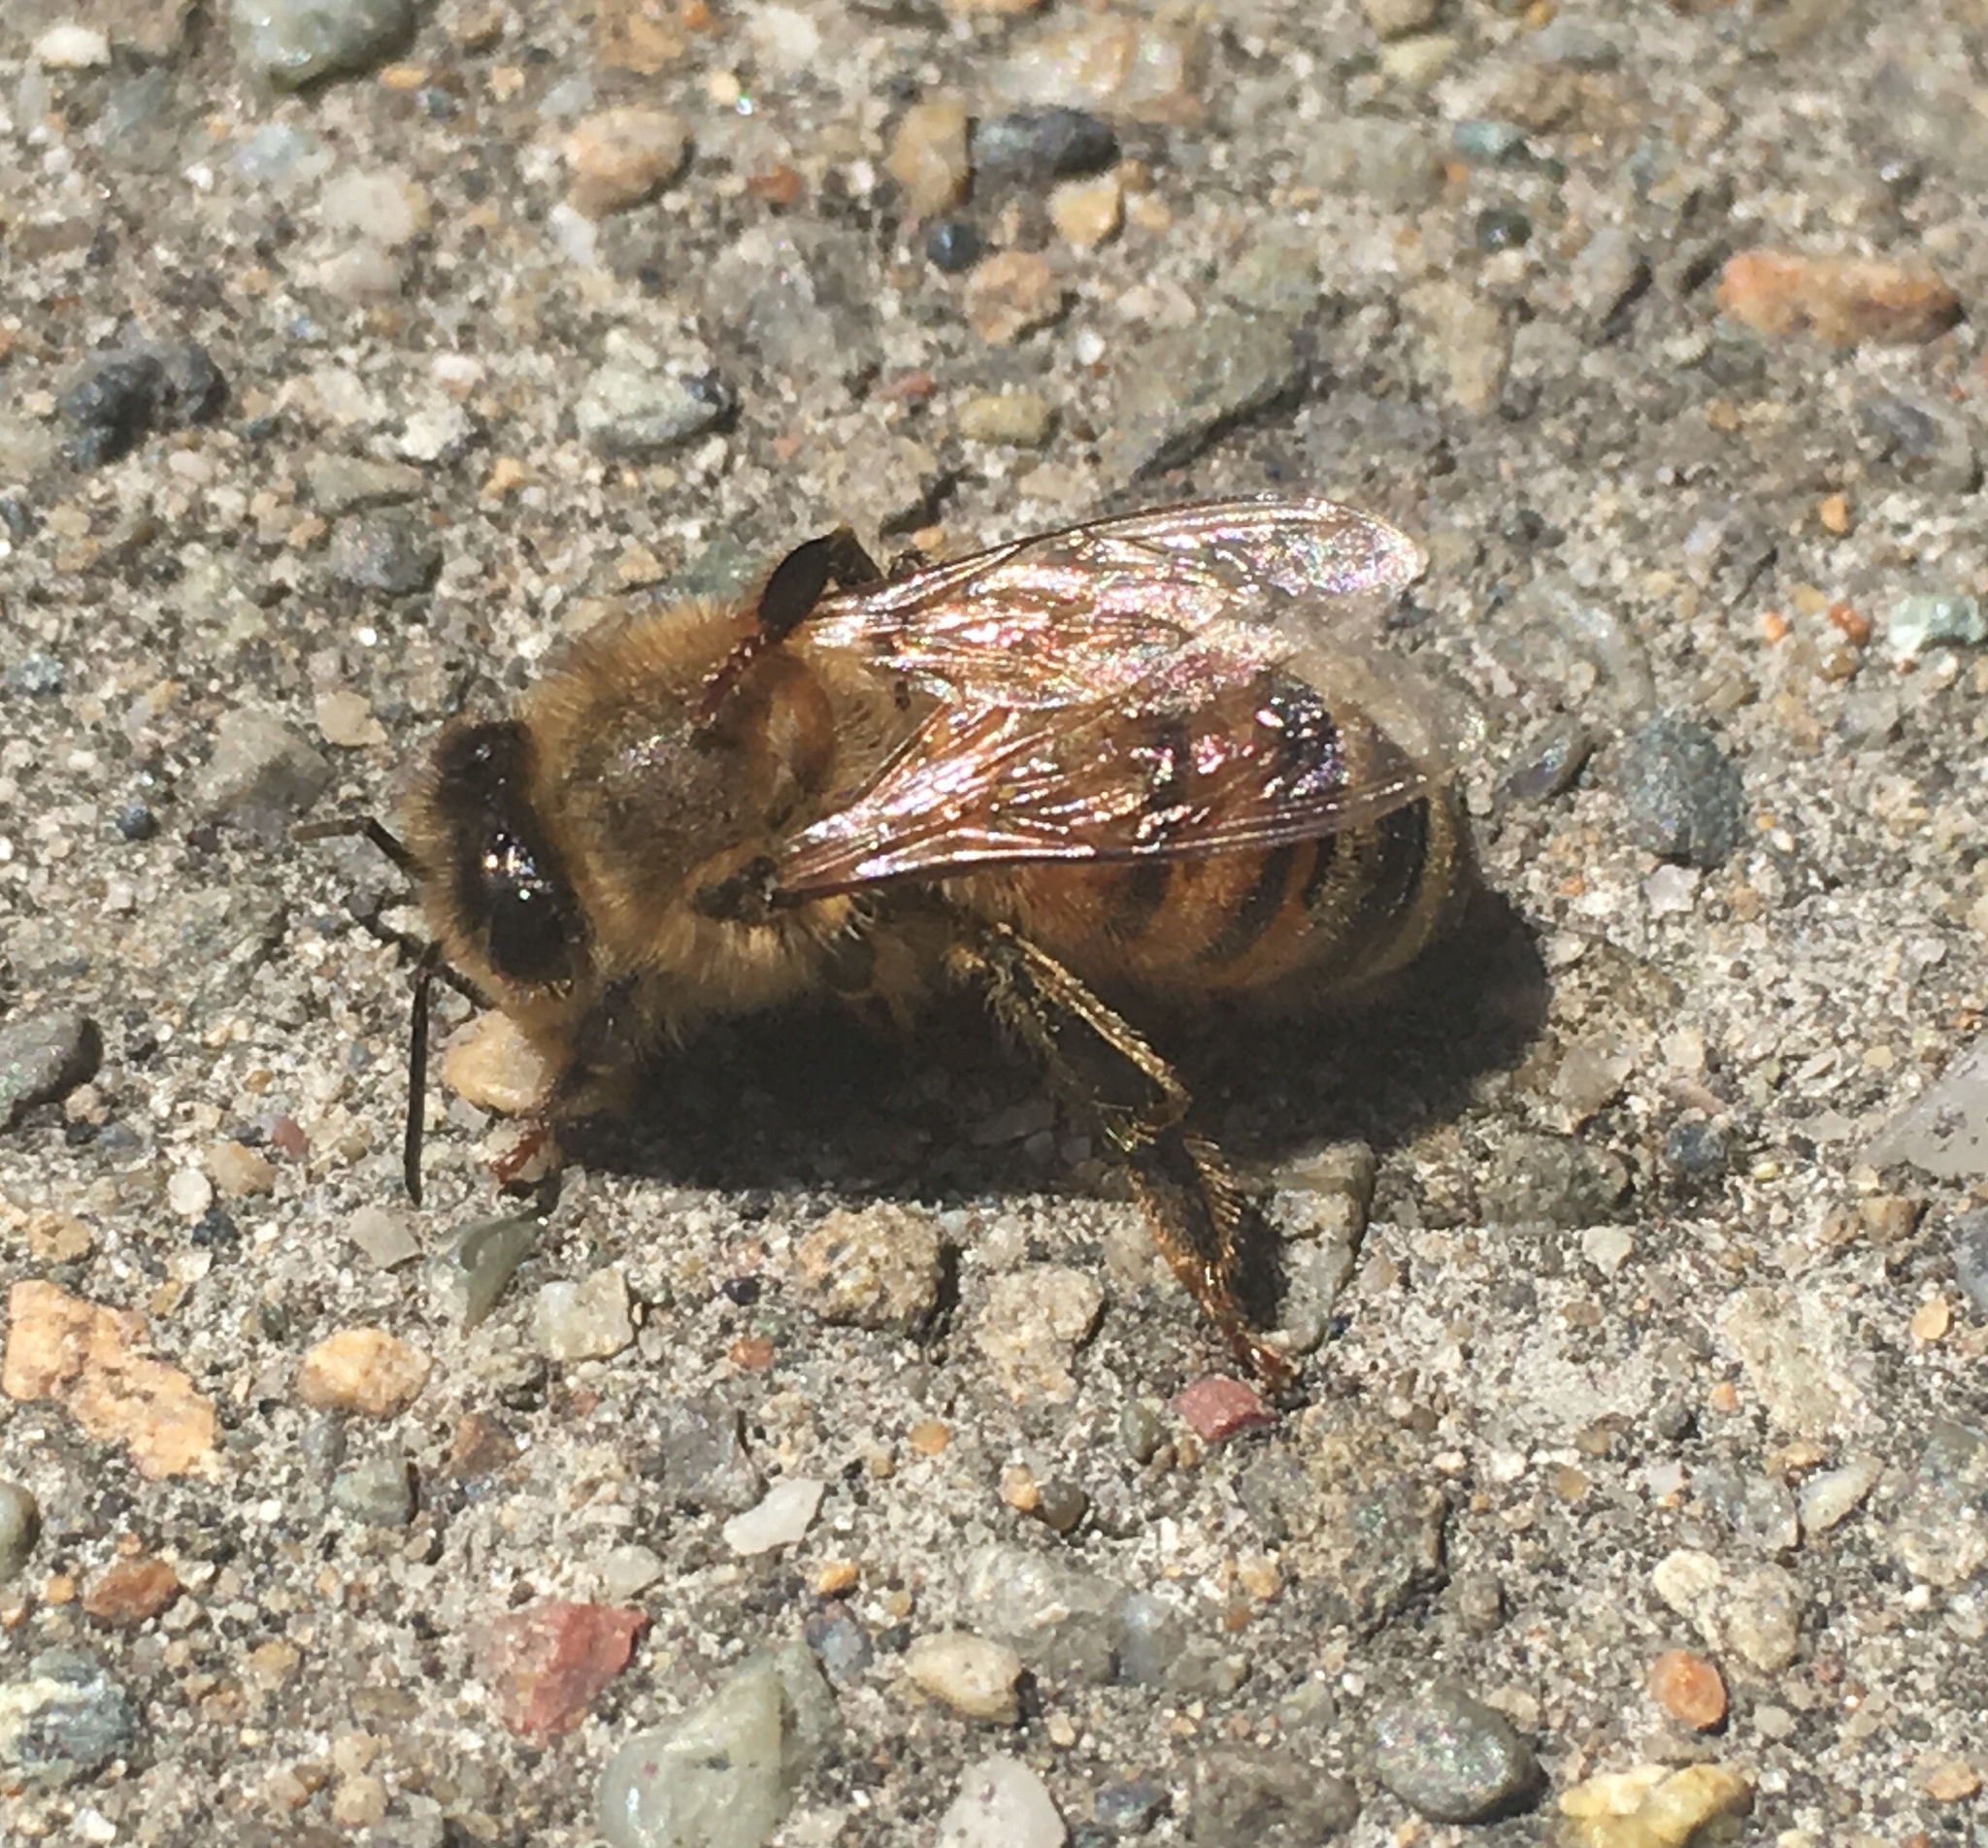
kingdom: Animalia
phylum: Arthropoda
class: Insecta
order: Hymenoptera
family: Apidae
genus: Apis
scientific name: Apis mellifera
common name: Honey bee
